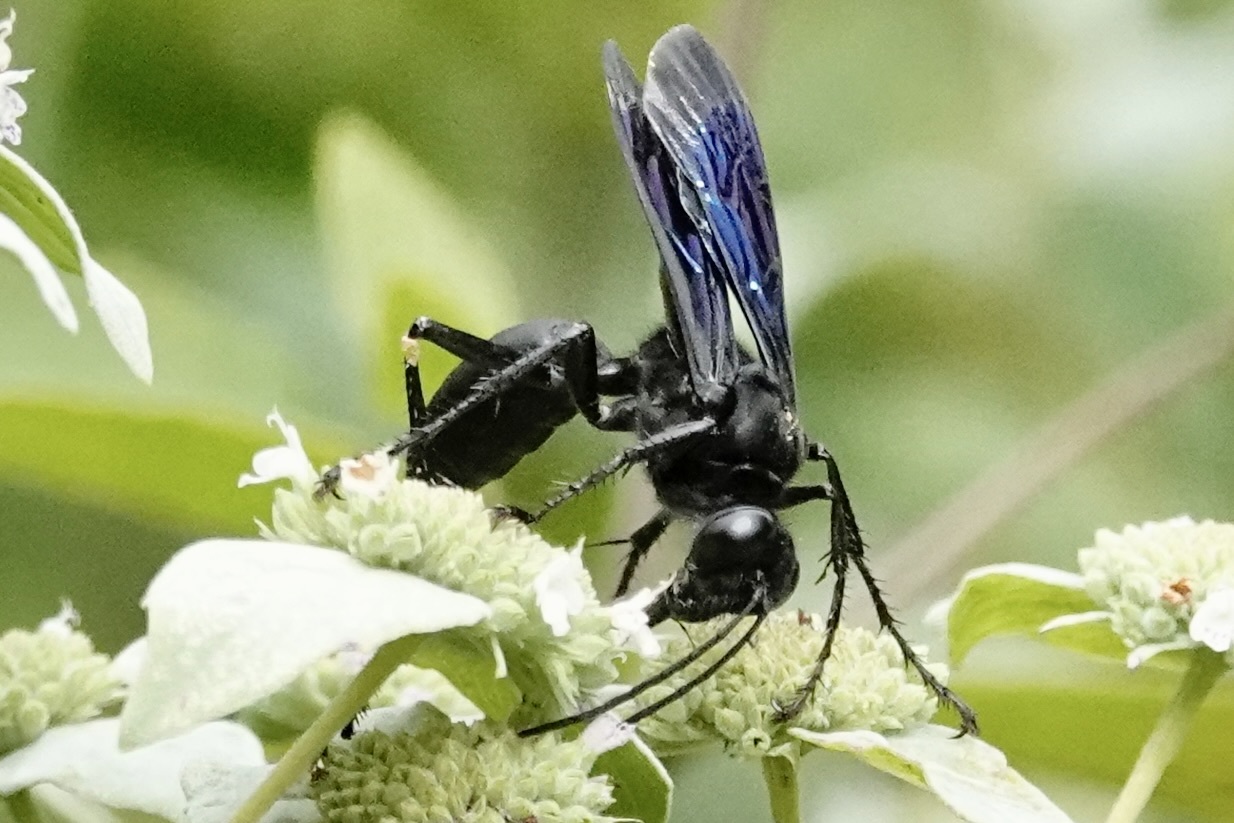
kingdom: Animalia
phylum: Arthropoda
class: Insecta
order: Hymenoptera
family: Sphecidae
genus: Sphex
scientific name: Sphex pensylvanicus
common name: Great black digger wasp
